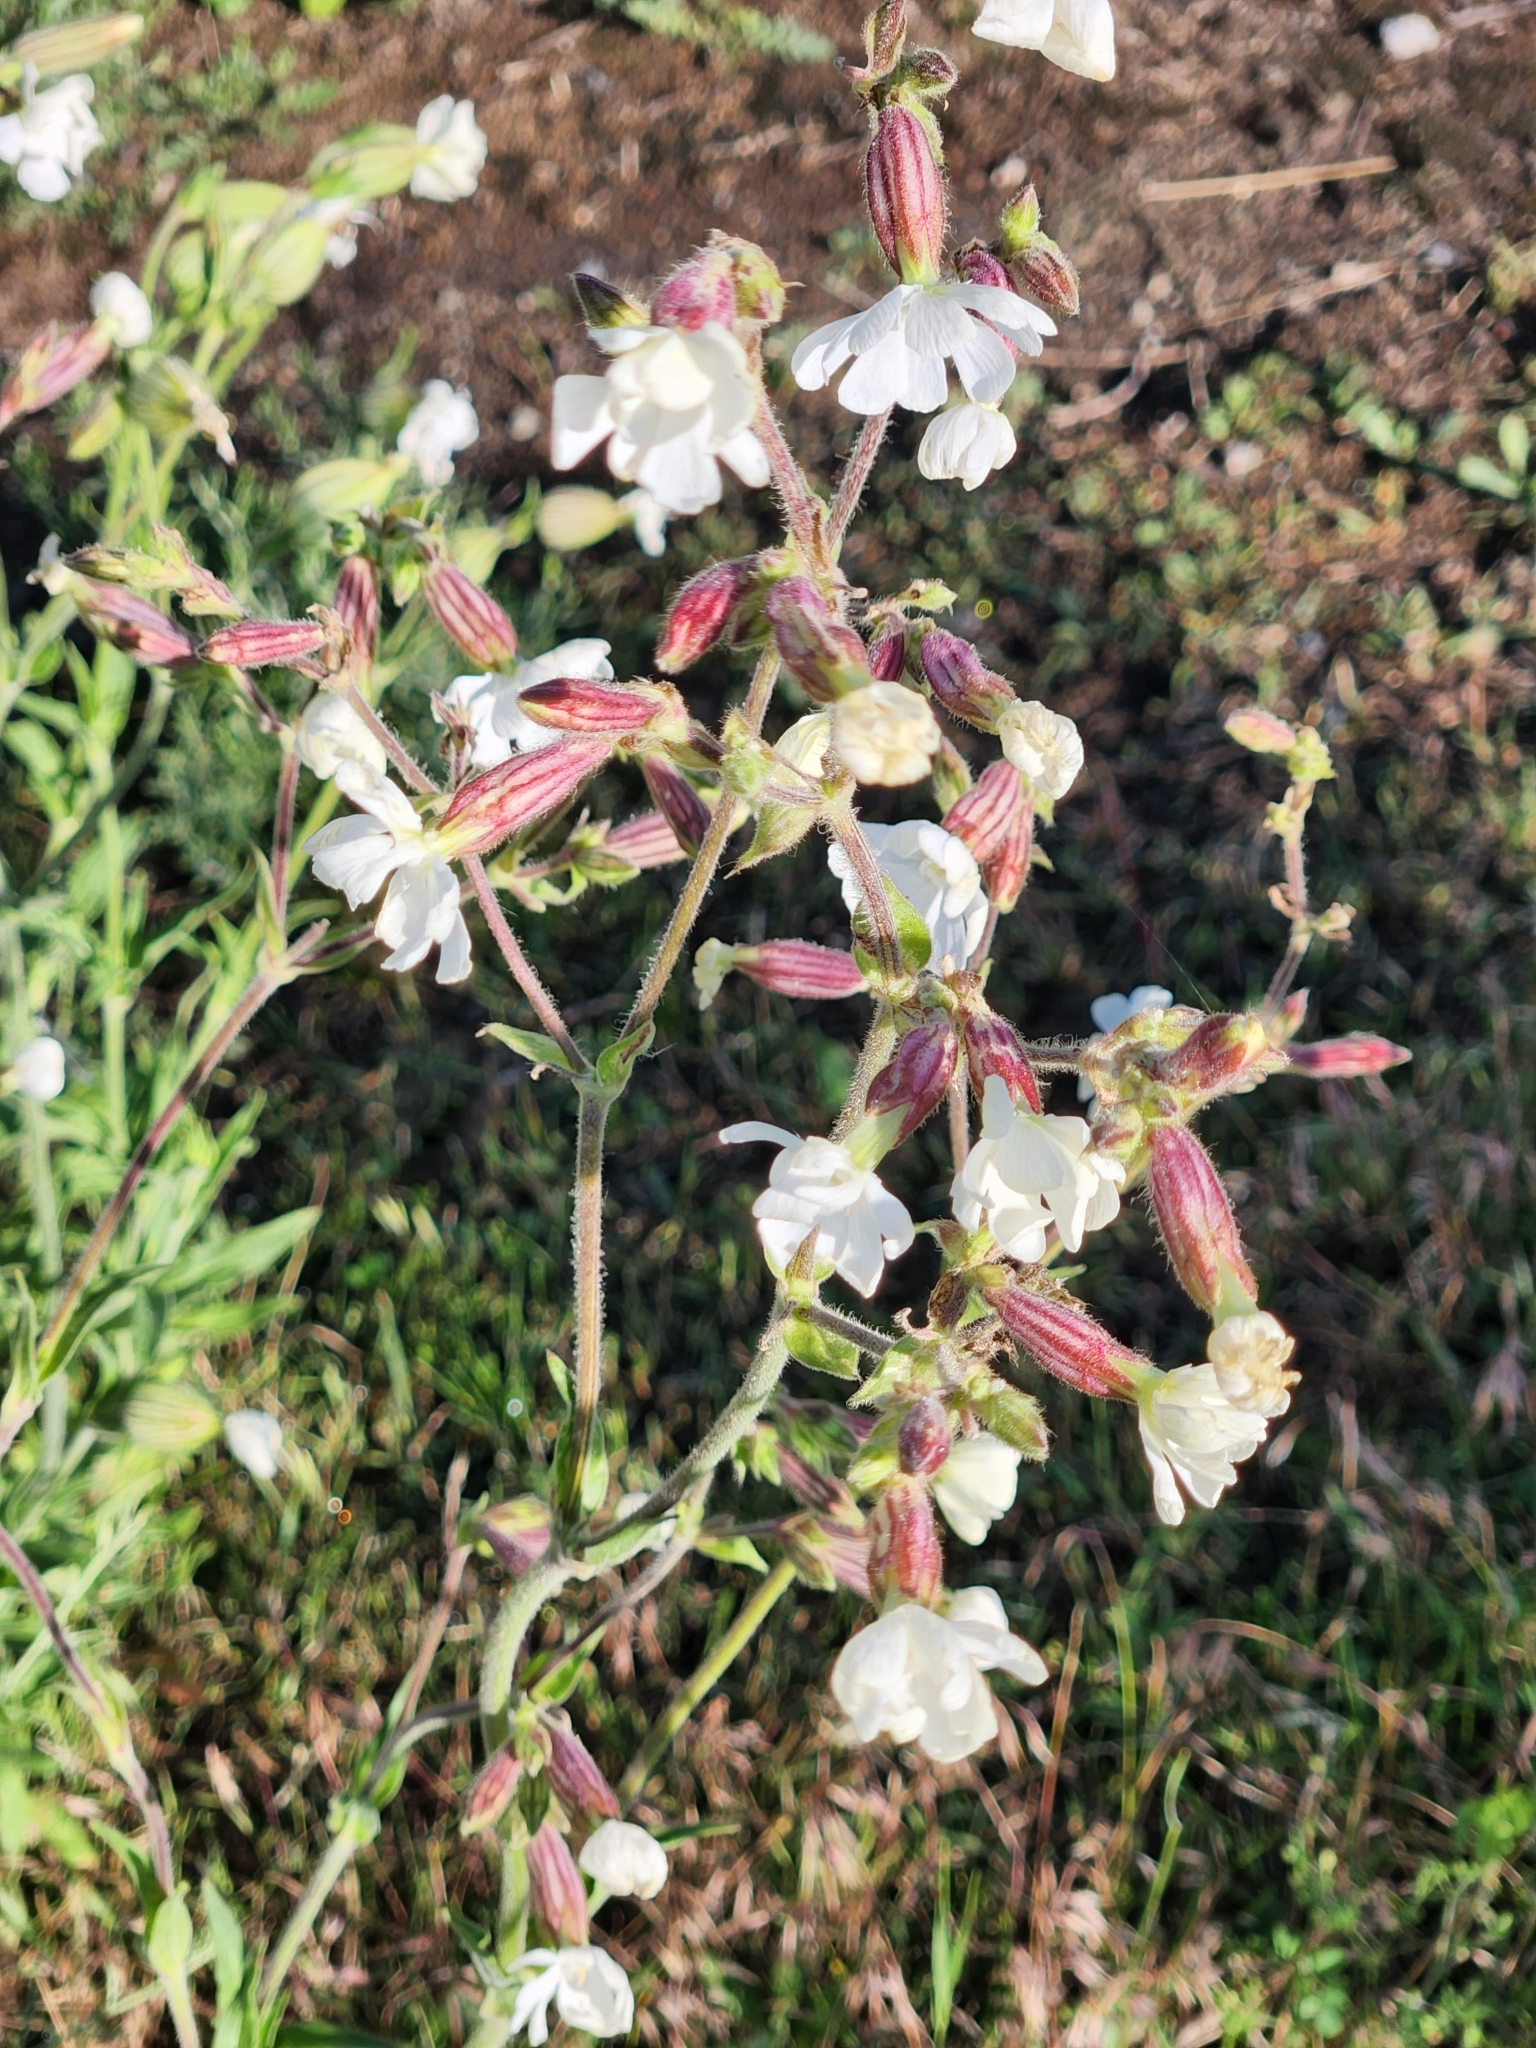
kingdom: Plantae
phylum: Tracheophyta
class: Magnoliopsida
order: Caryophyllales
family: Caryophyllaceae
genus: Silene
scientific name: Silene latifolia
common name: White campion
